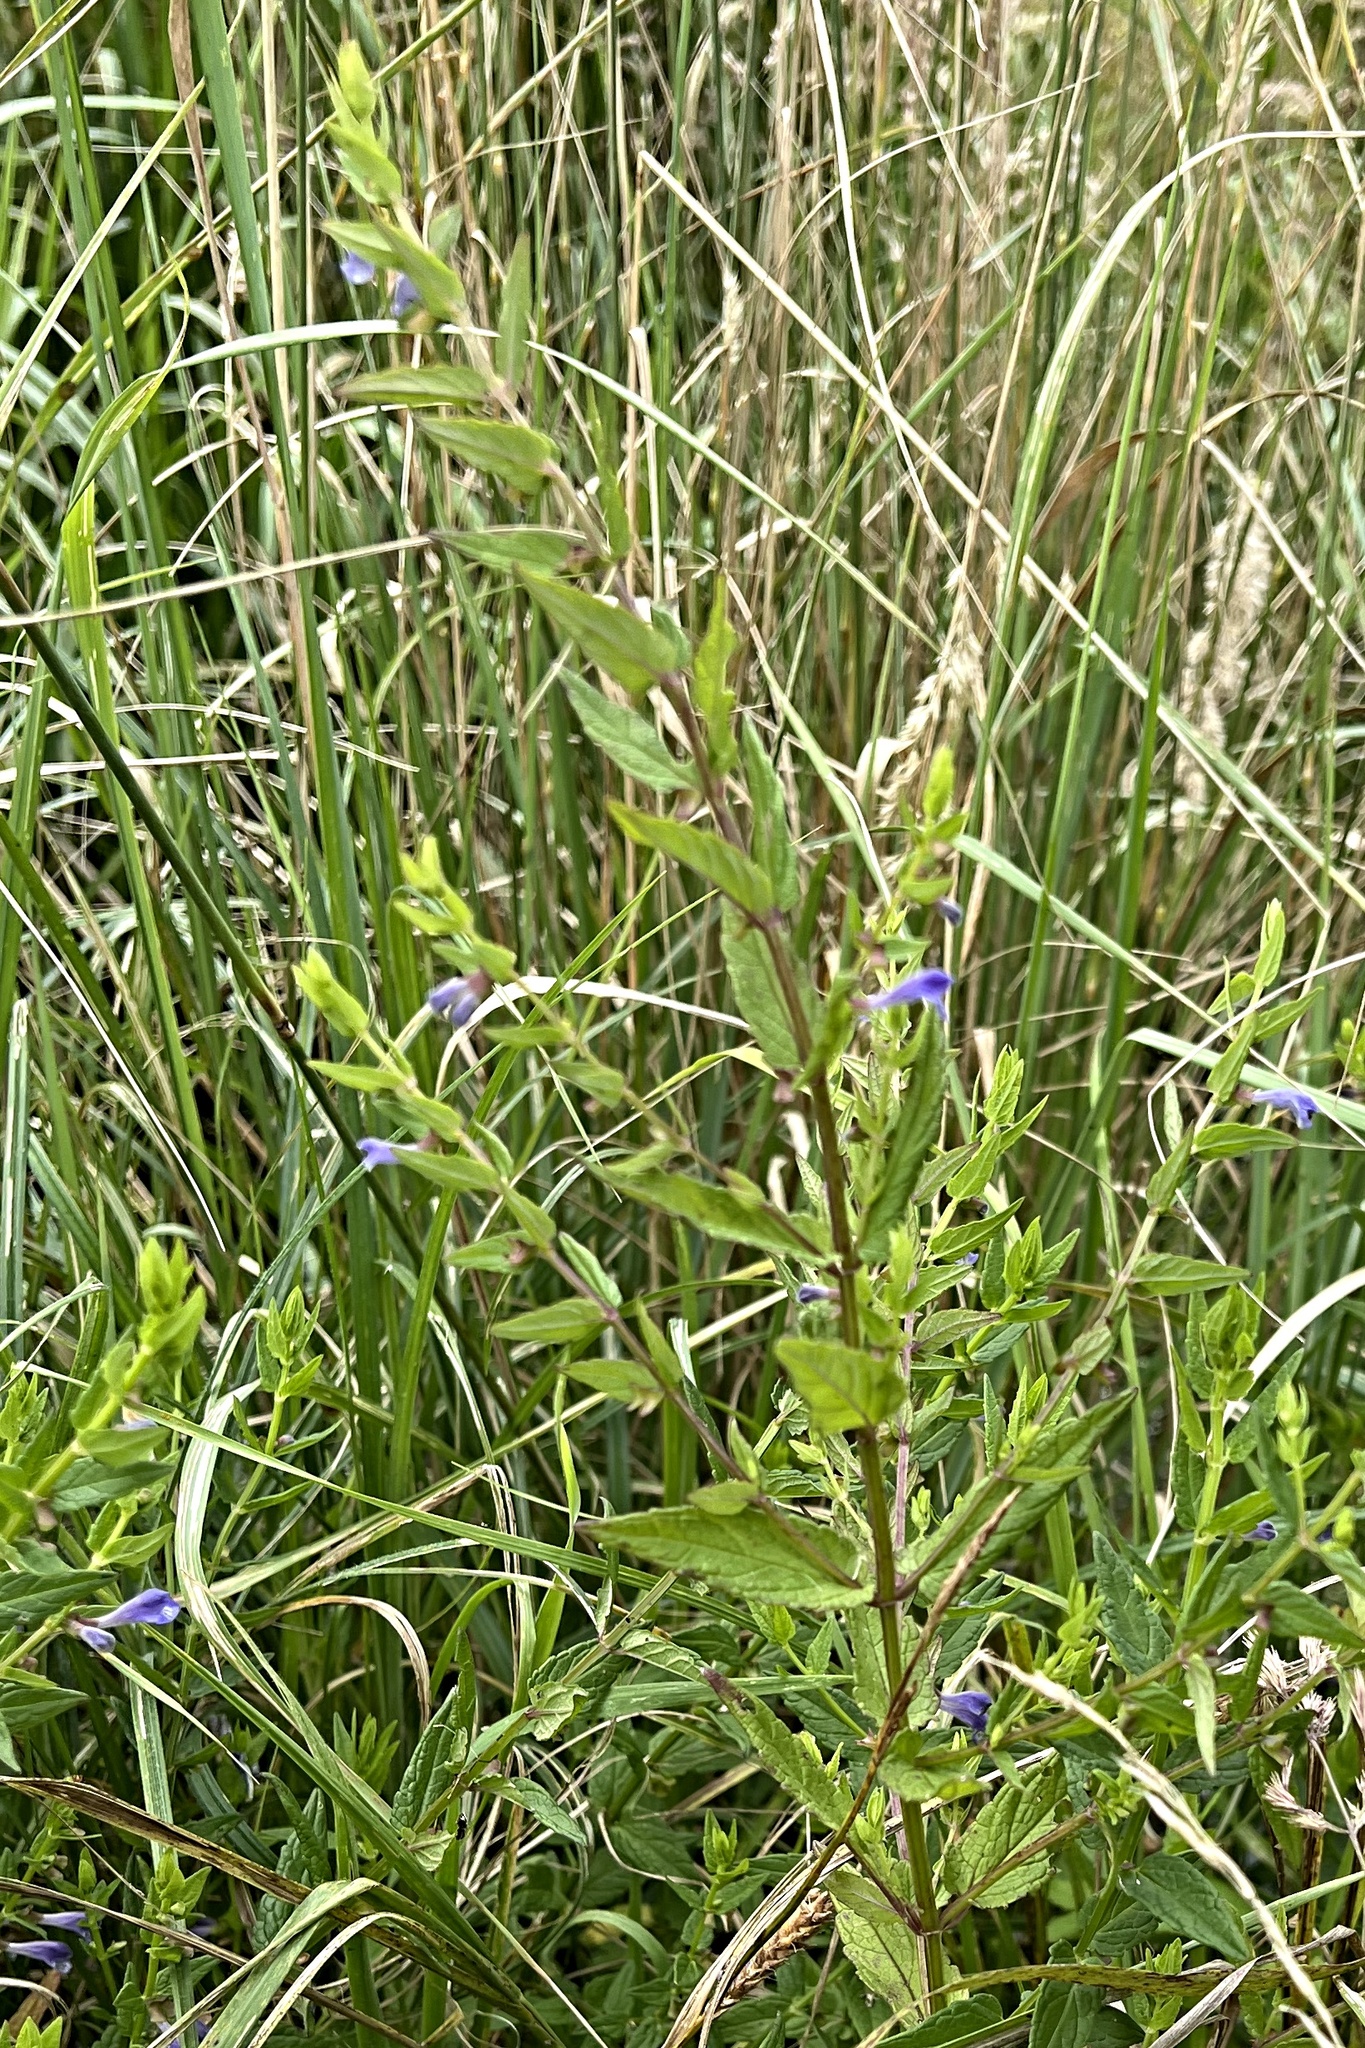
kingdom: Plantae
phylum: Tracheophyta
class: Magnoliopsida
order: Lamiales
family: Lamiaceae
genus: Scutellaria
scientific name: Scutellaria galericulata
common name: Skullcap
